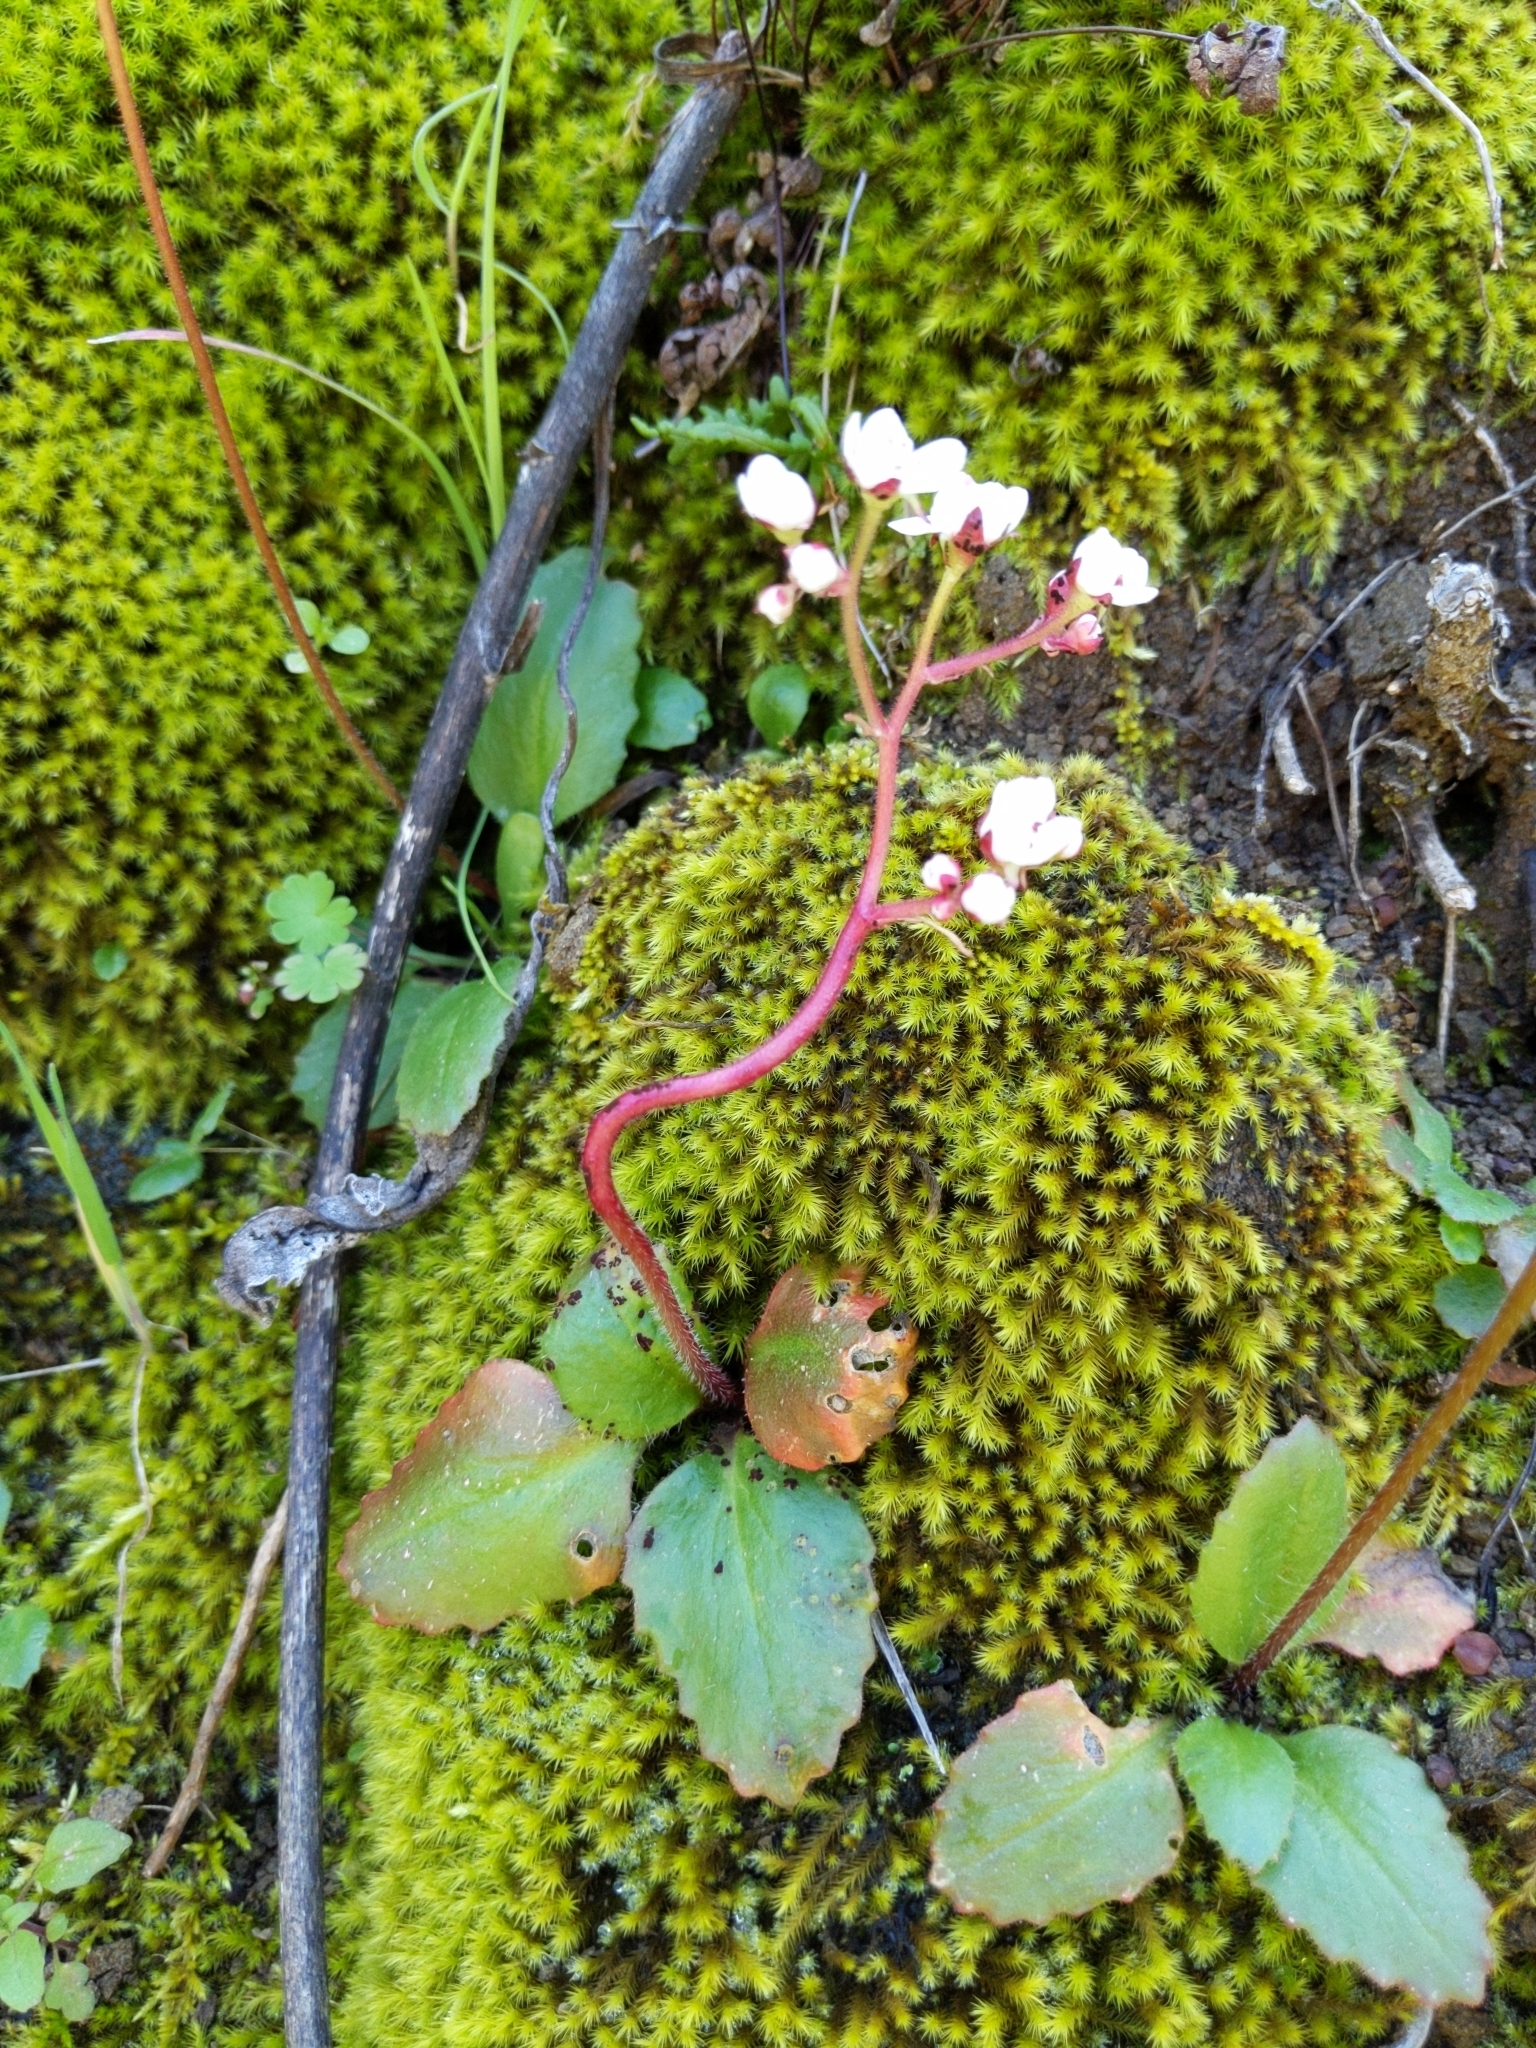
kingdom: Plantae
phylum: Tracheophyta
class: Magnoliopsida
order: Saxifragales
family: Saxifragaceae
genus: Micranthes
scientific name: Micranthes californica
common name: California saxifrage
